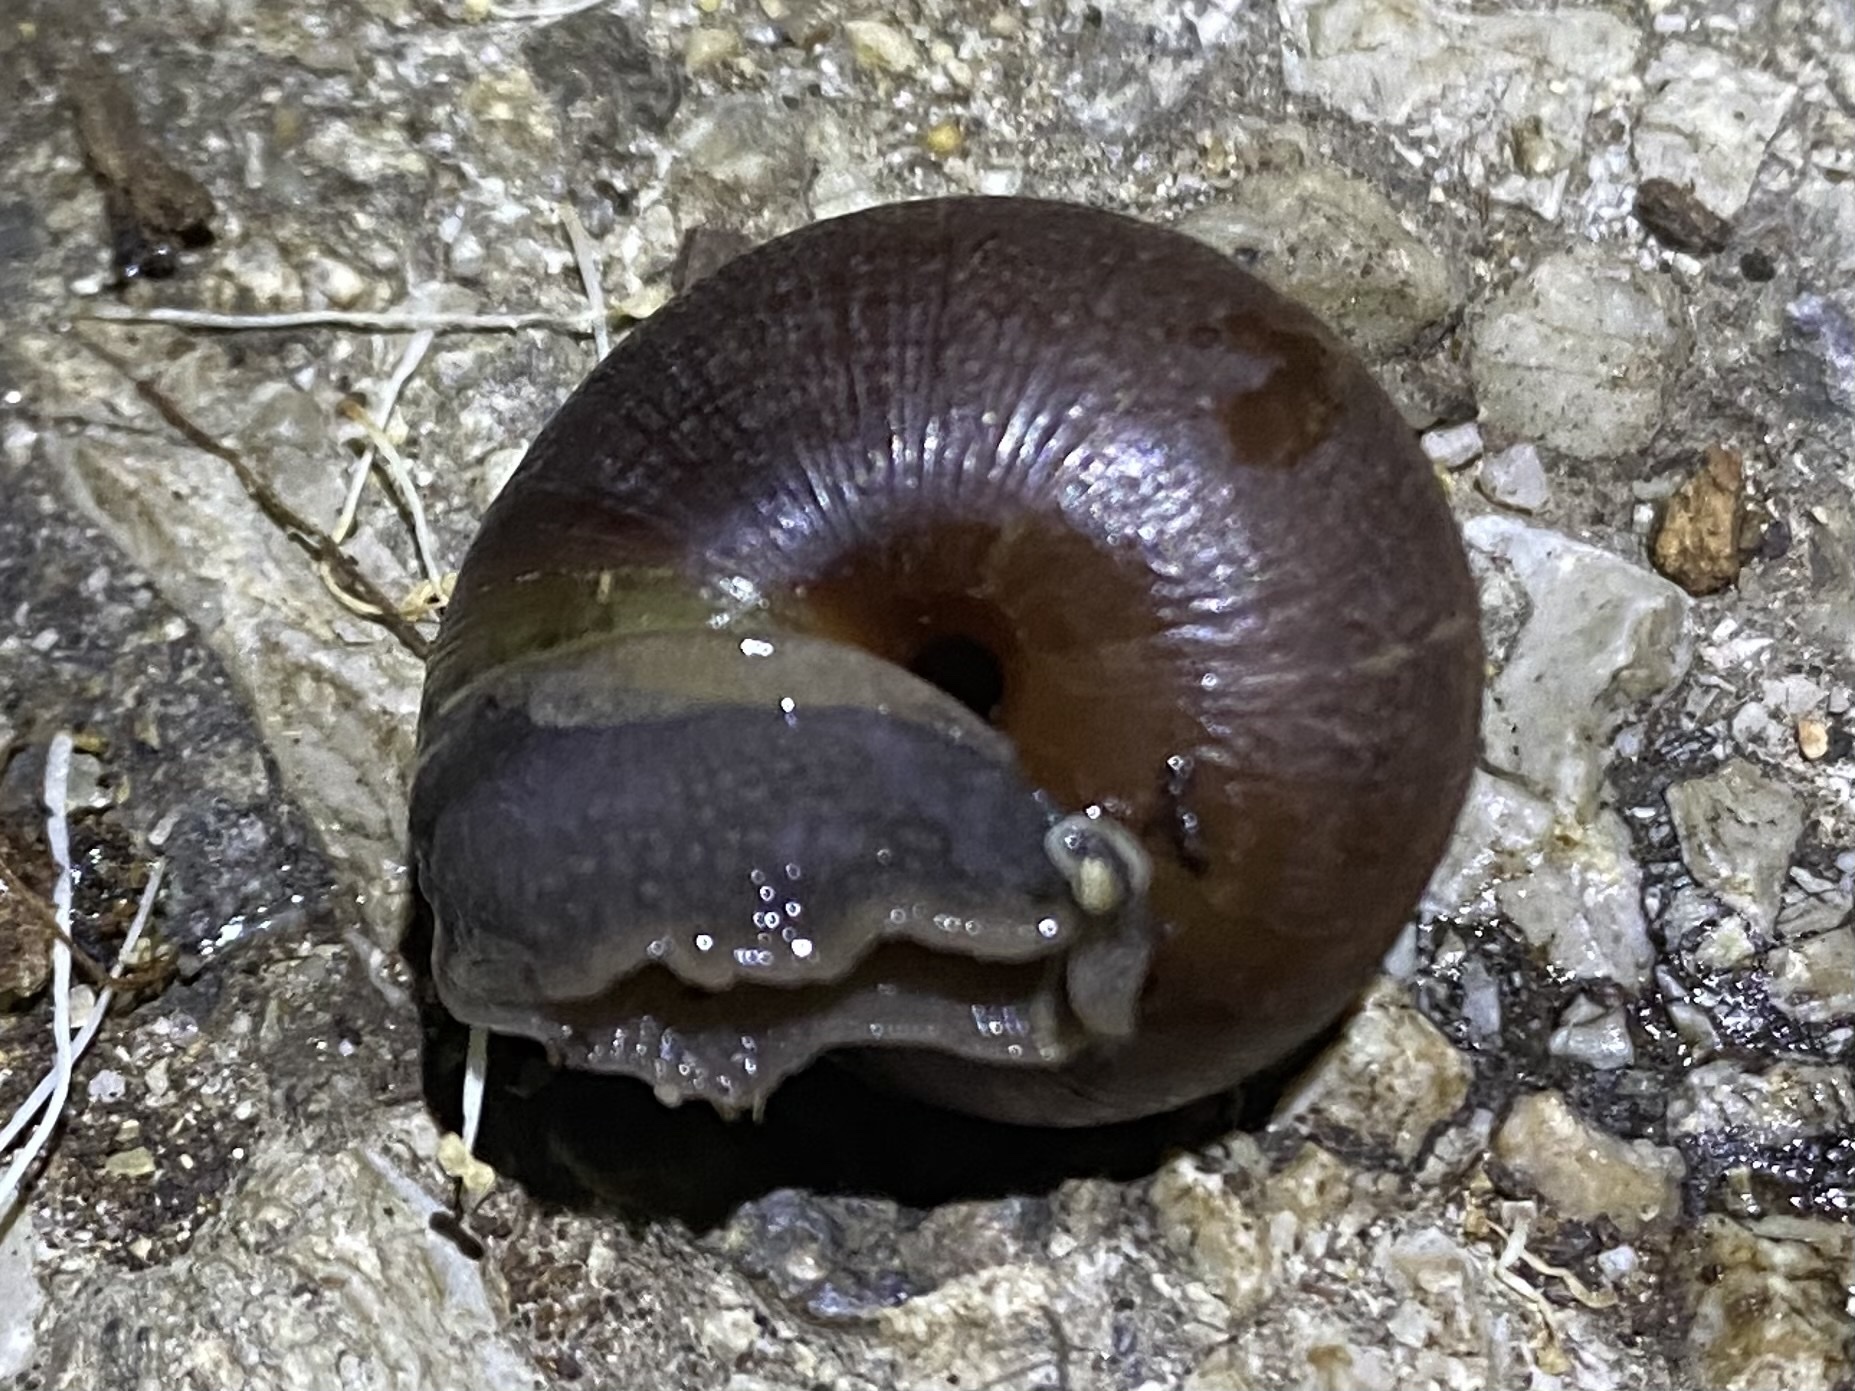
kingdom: Animalia
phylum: Mollusca
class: Gastropoda
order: Stylommatophora
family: Xanthonychidae
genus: Helminthoglypta
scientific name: Helminthoglypta arrosa
